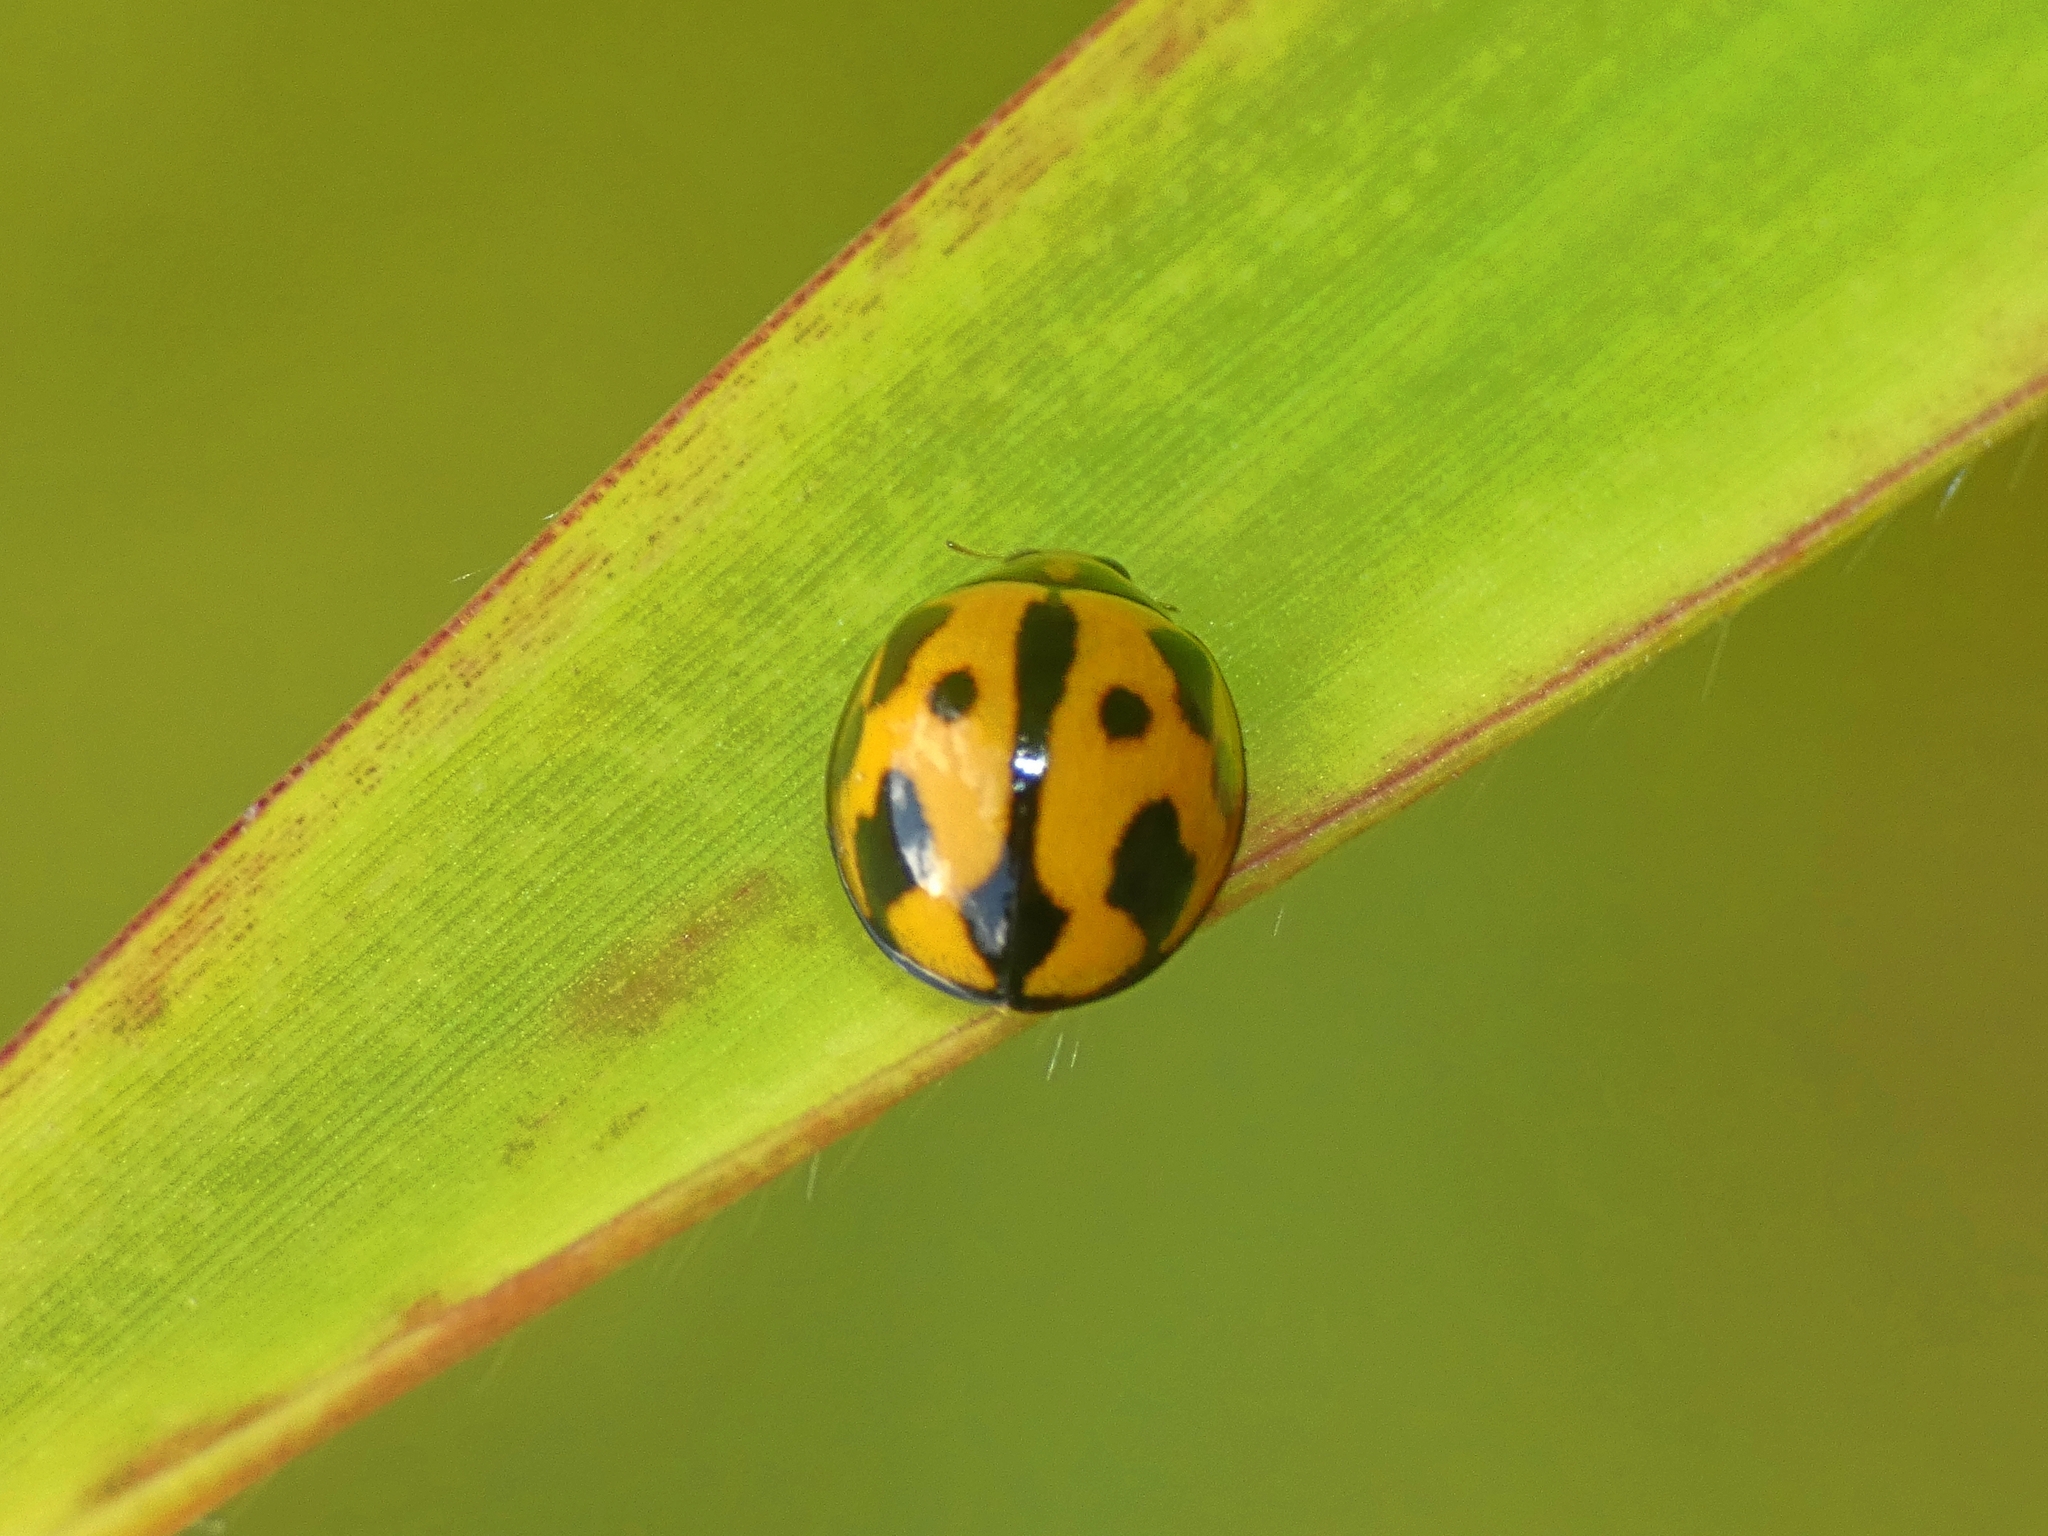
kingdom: Animalia
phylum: Arthropoda
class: Insecta
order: Coleoptera
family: Coccinellidae
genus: Coelophora
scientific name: Coelophora inaequalis
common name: Common australian lady beetle
